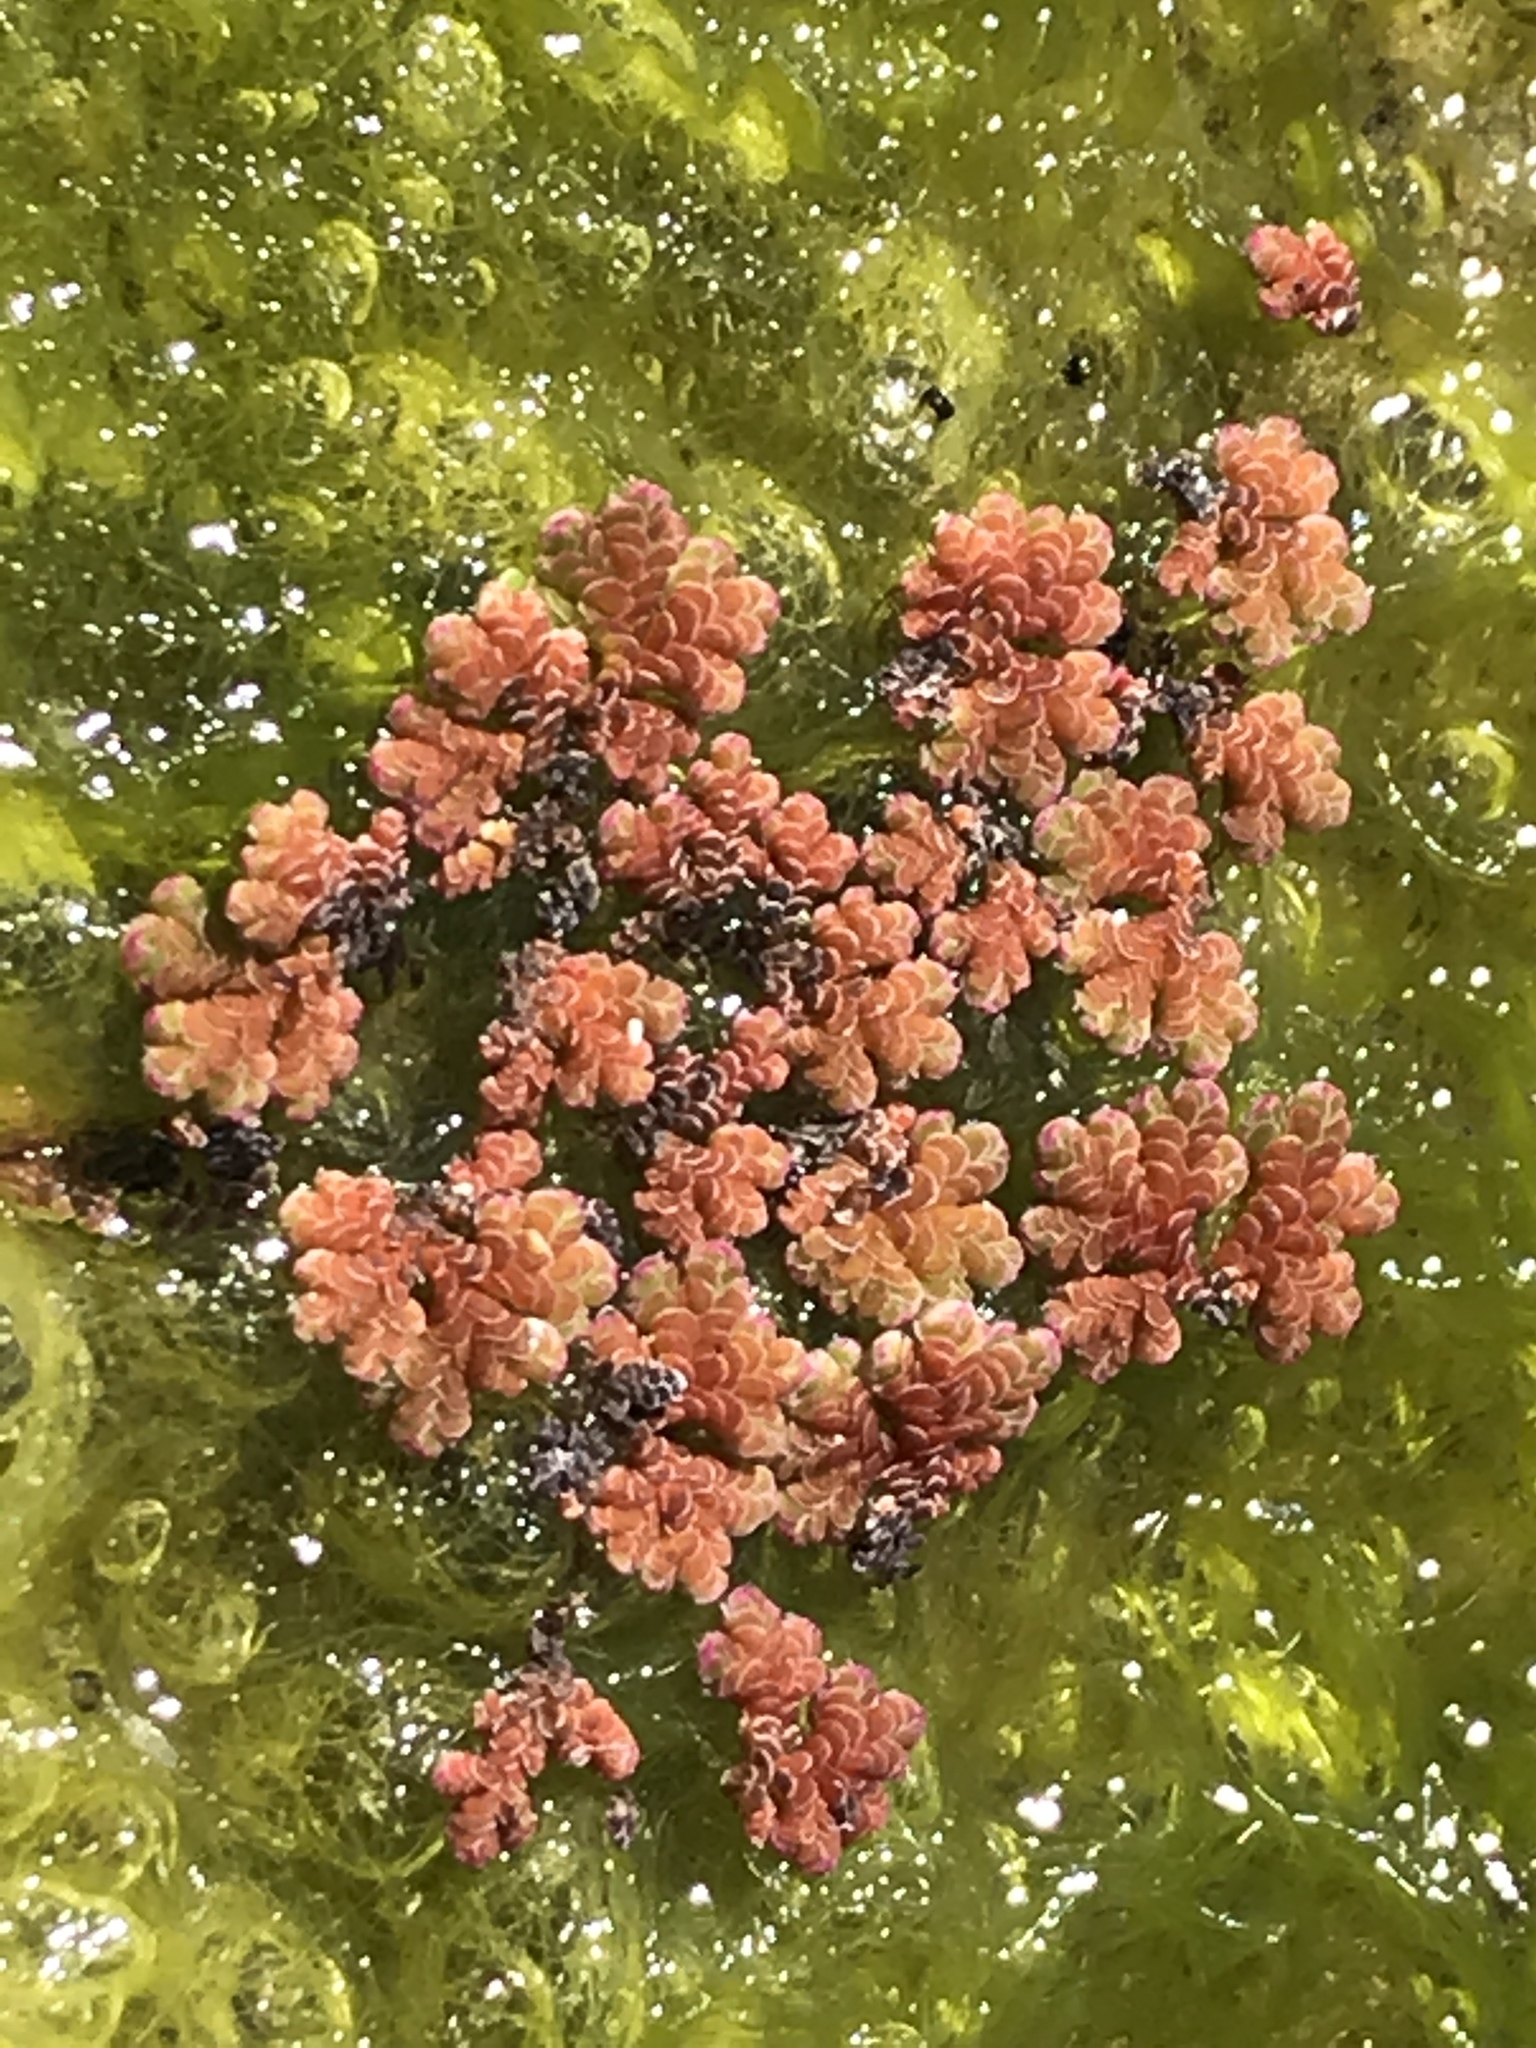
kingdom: Plantae
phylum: Tracheophyta
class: Polypodiopsida
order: Salviniales
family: Salviniaceae
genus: Azolla
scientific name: Azolla filiculoides
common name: Water fern
